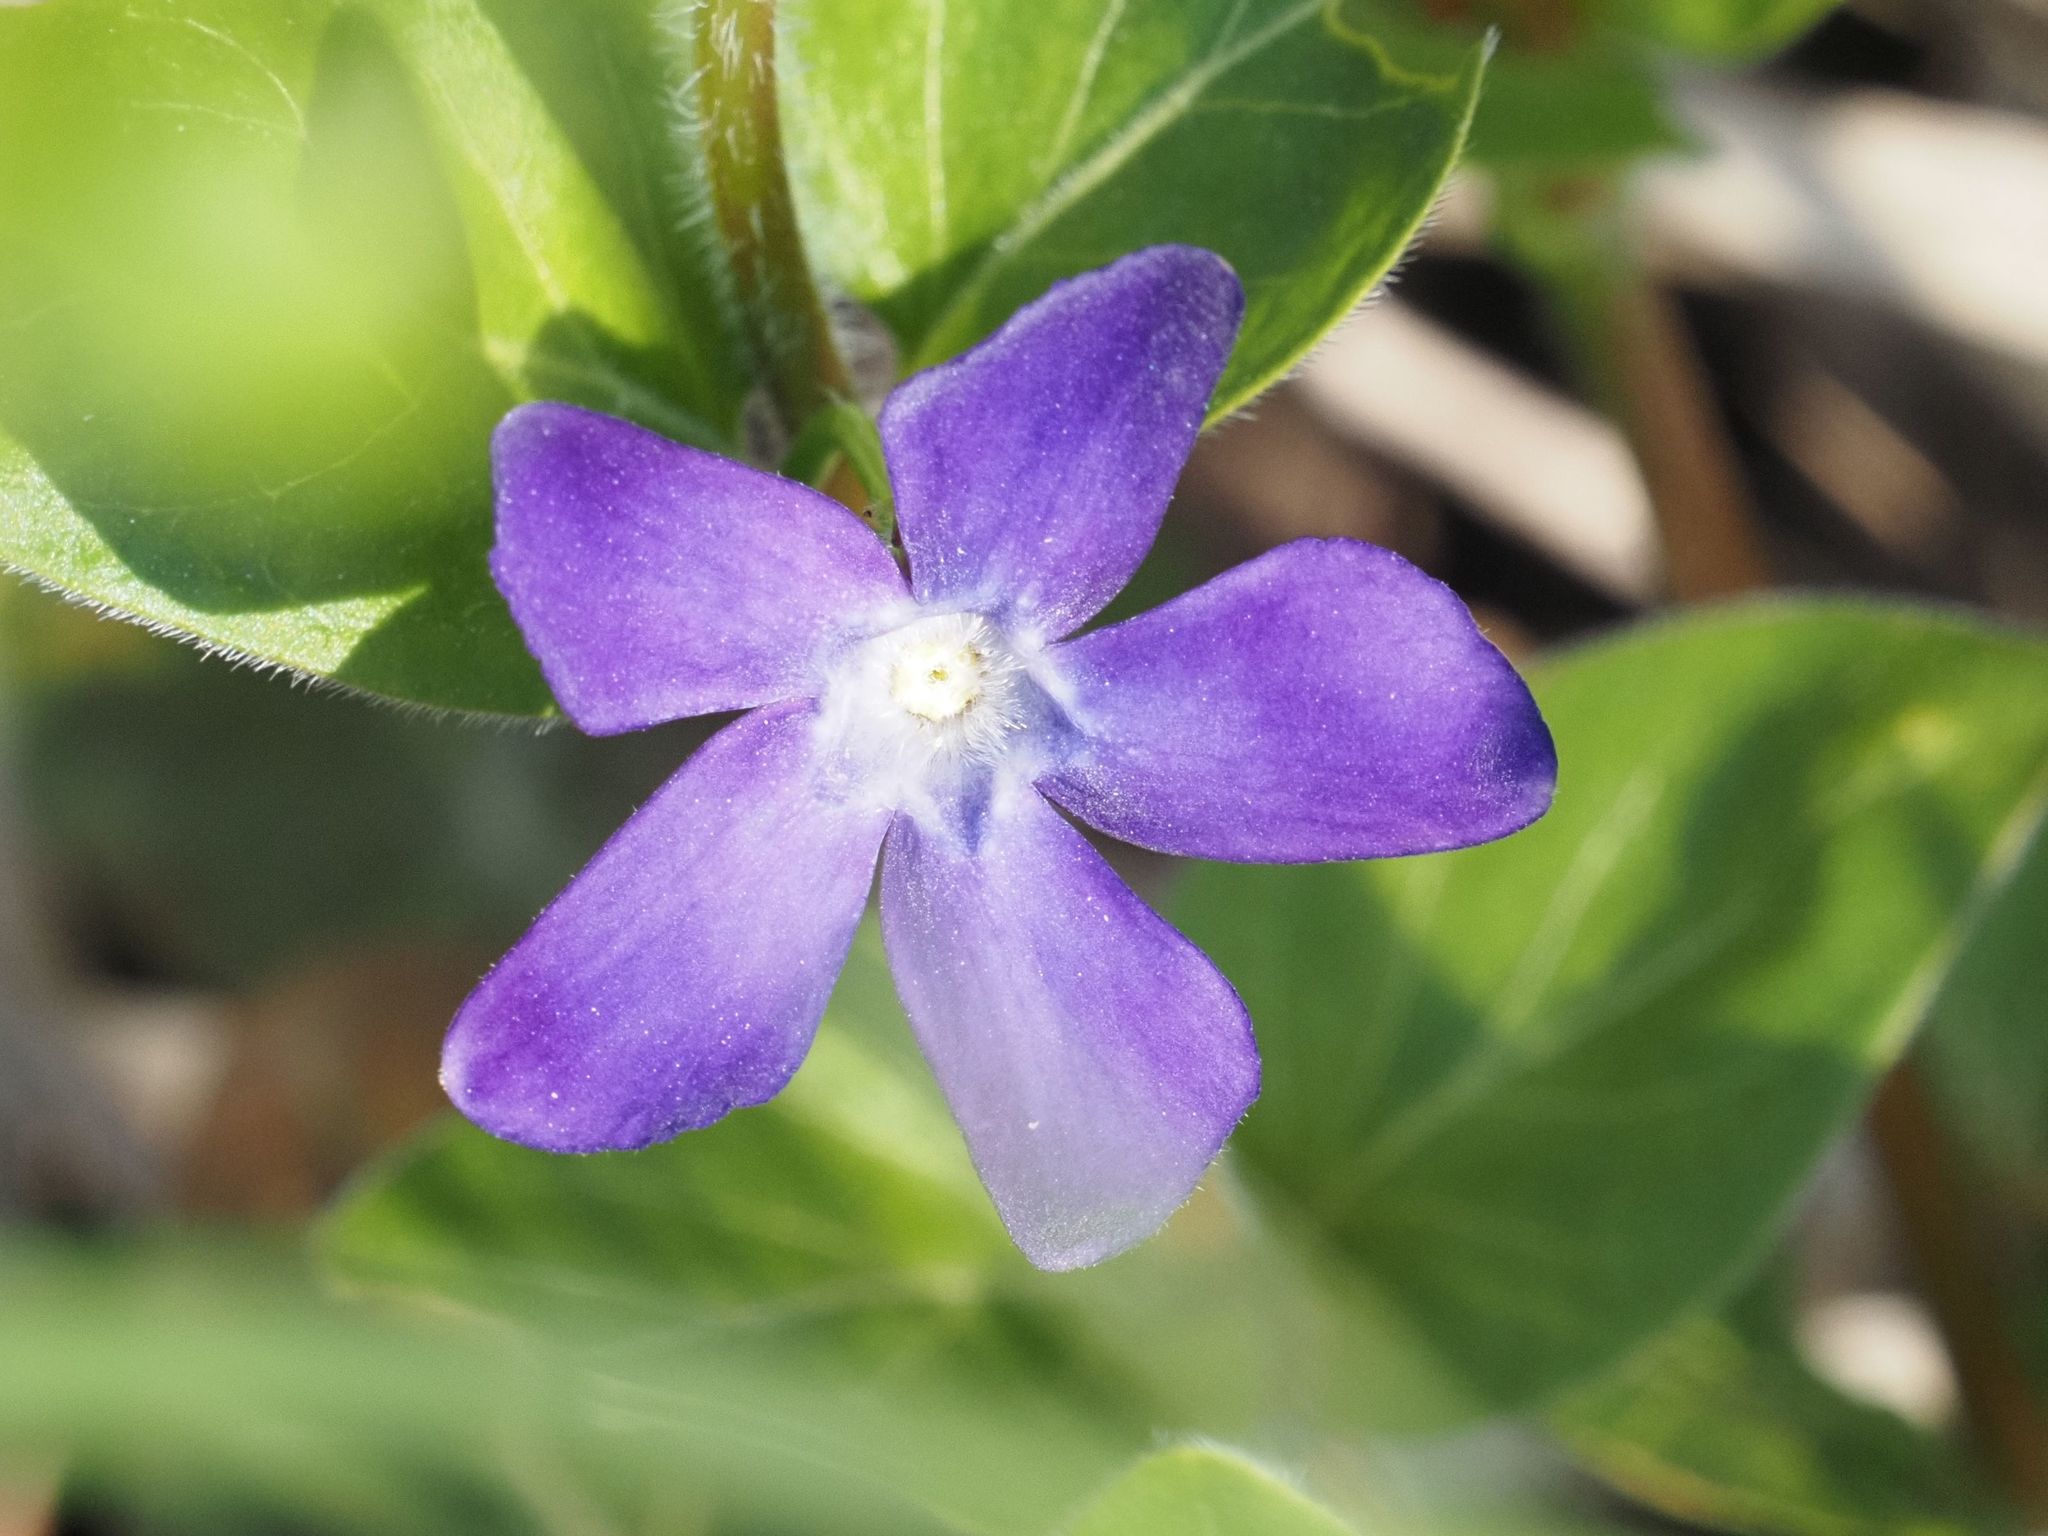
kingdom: Plantae
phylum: Tracheophyta
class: Magnoliopsida
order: Gentianales
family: Apocynaceae
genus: Vinca
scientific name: Vinca major
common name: Greater periwinkle
